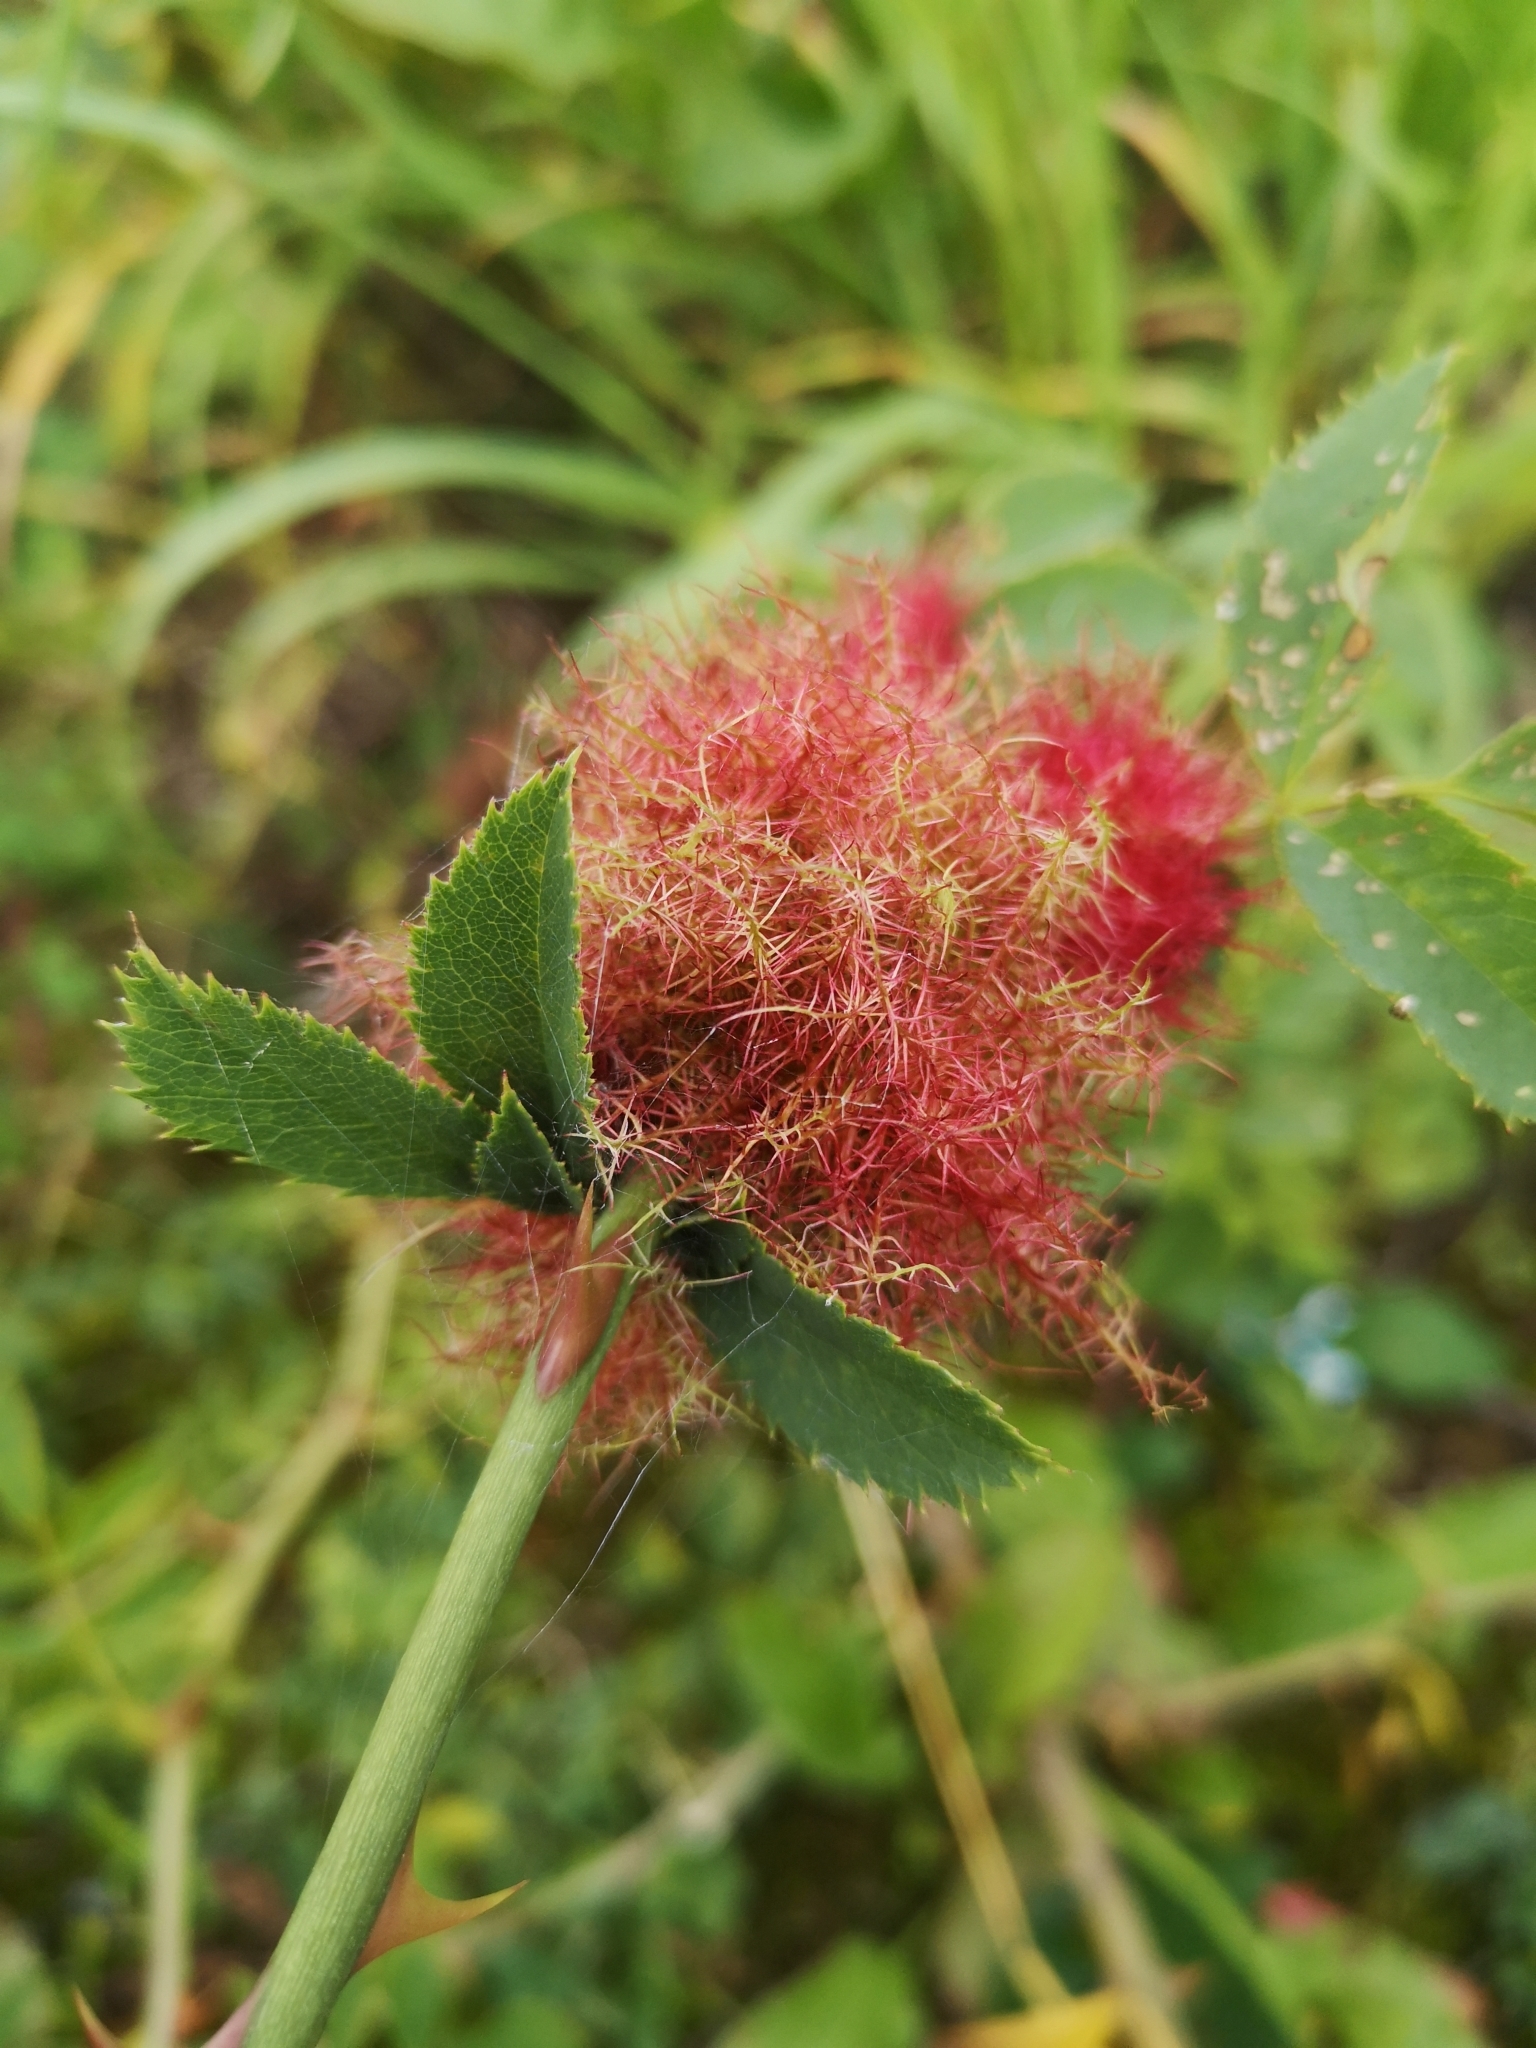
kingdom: Animalia
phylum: Arthropoda
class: Insecta
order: Hymenoptera
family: Cynipidae
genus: Diplolepis
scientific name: Diplolepis rosae
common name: Bedeguar gall
